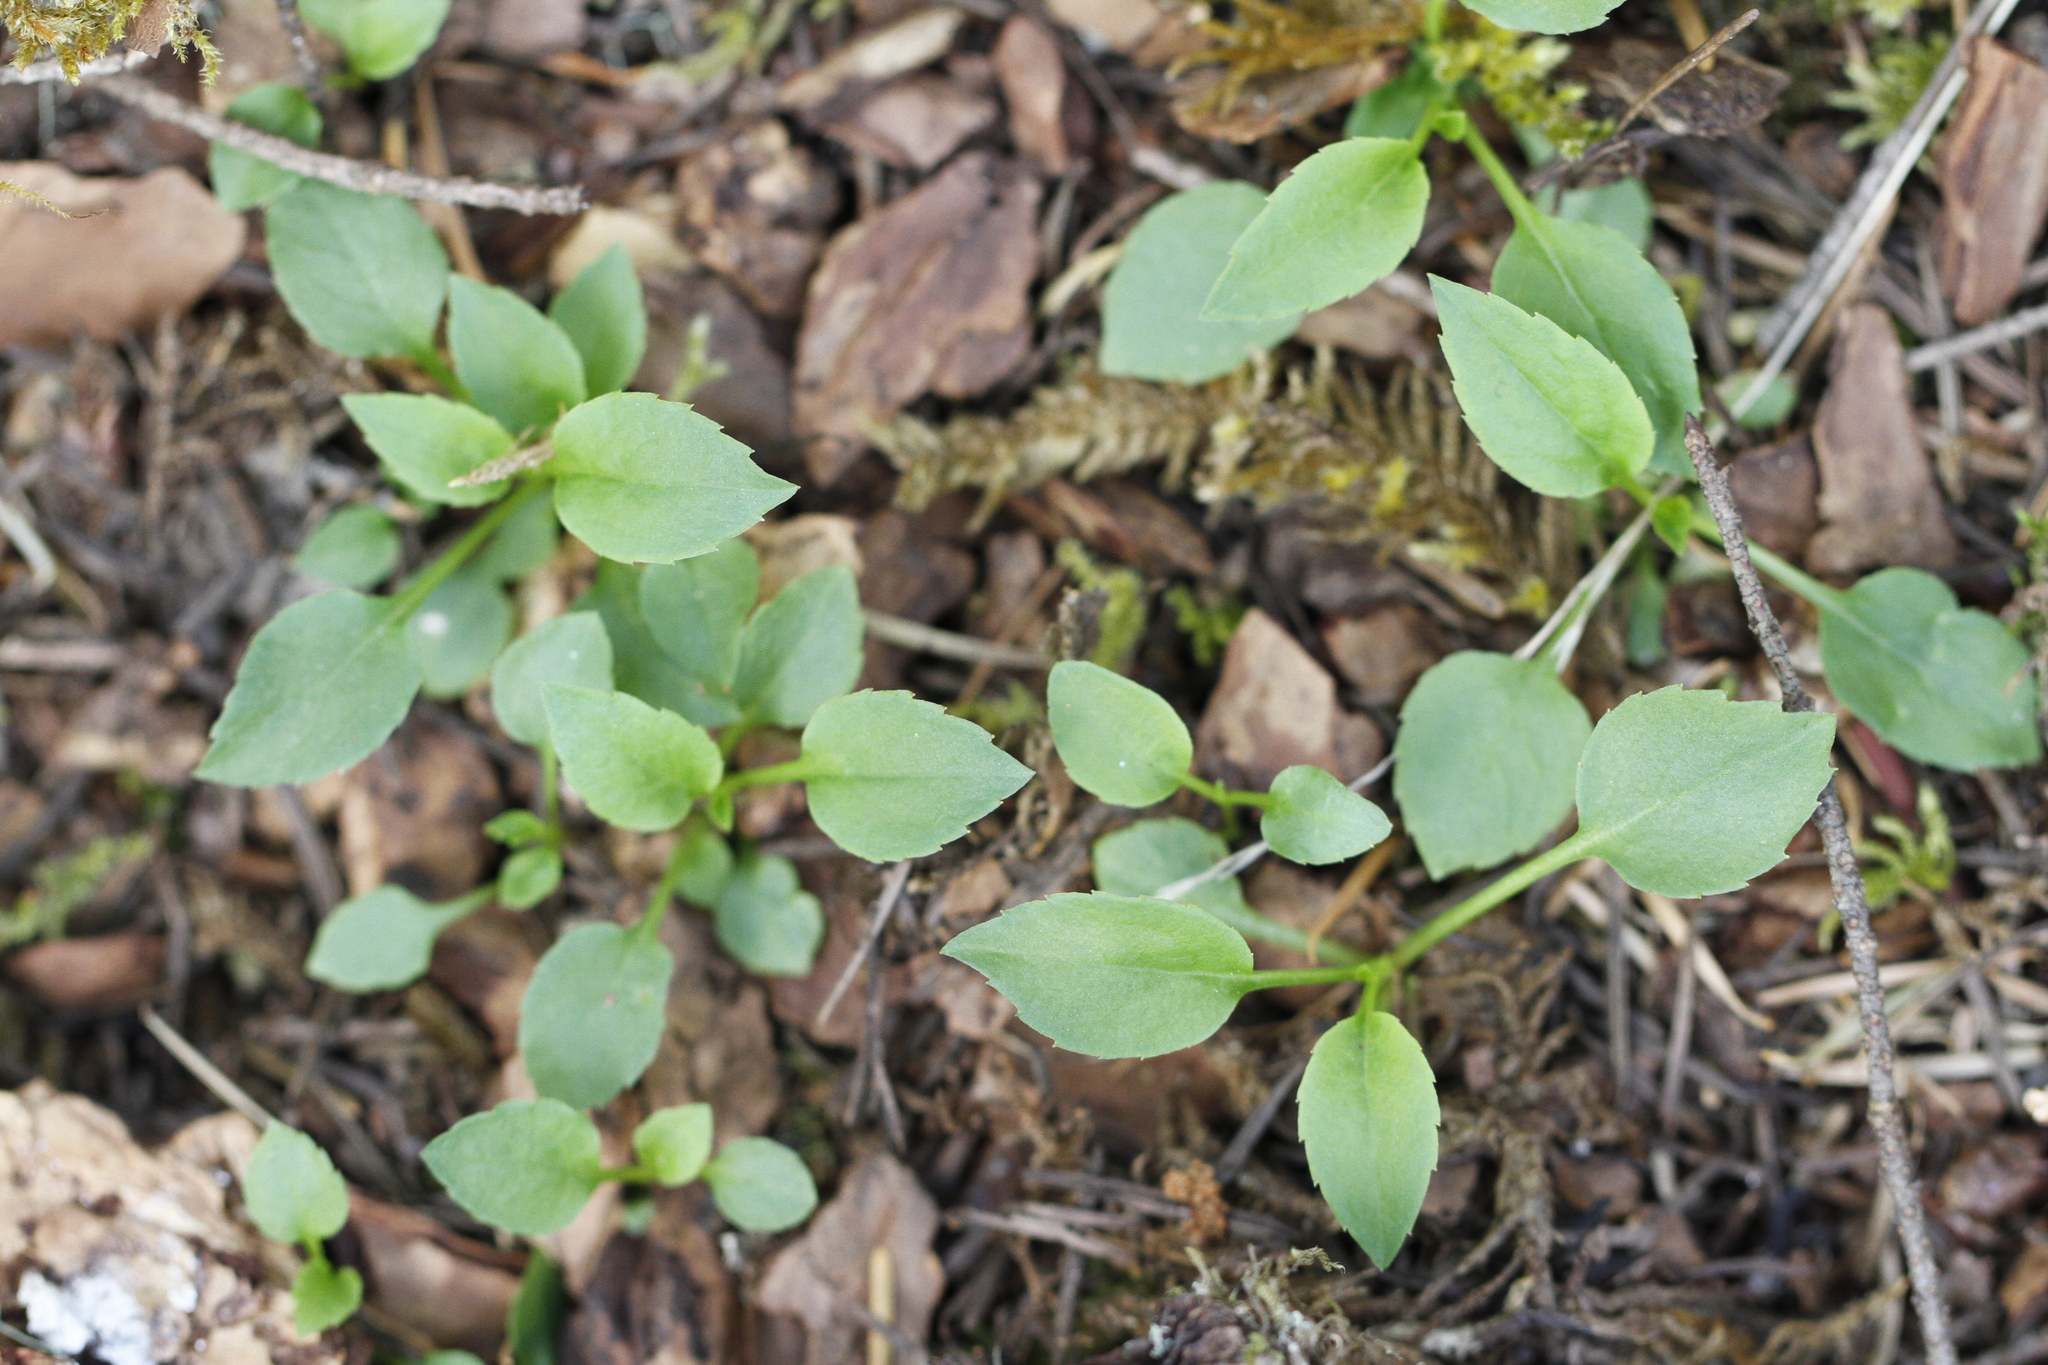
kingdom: Plantae
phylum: Tracheophyta
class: Magnoliopsida
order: Asterales
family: Campanulaceae
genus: Campanula
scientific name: Campanula scouleri
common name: Scouler's harebell
